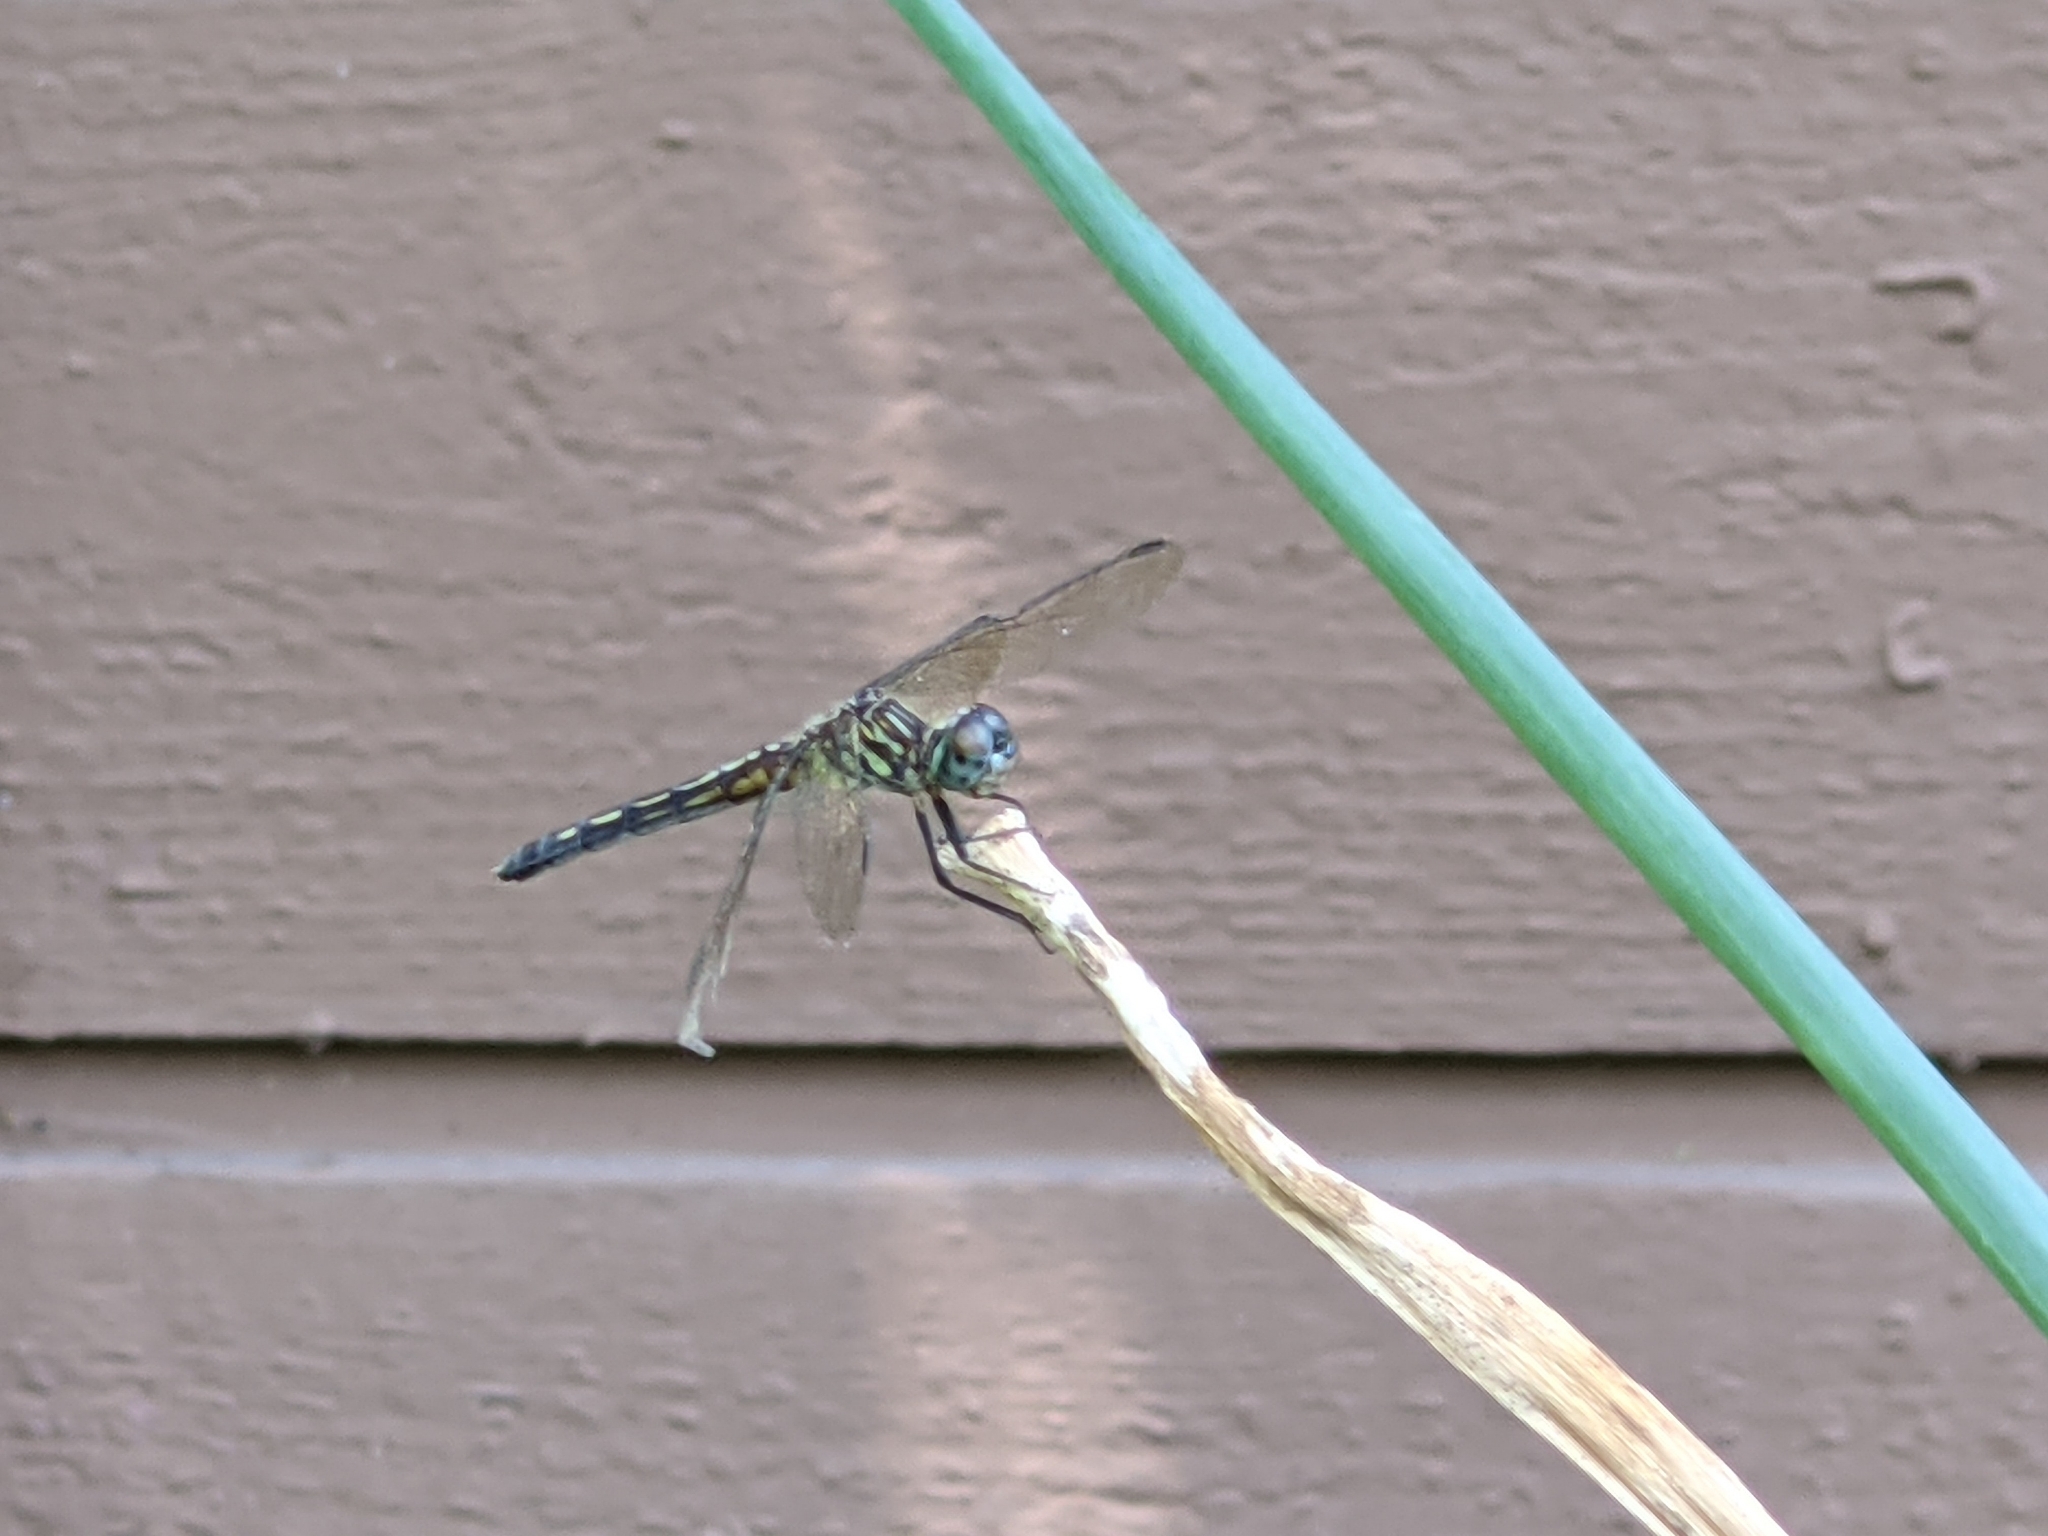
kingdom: Animalia
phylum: Arthropoda
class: Insecta
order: Odonata
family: Libellulidae
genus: Pachydiplax
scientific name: Pachydiplax longipennis
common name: Blue dasher
